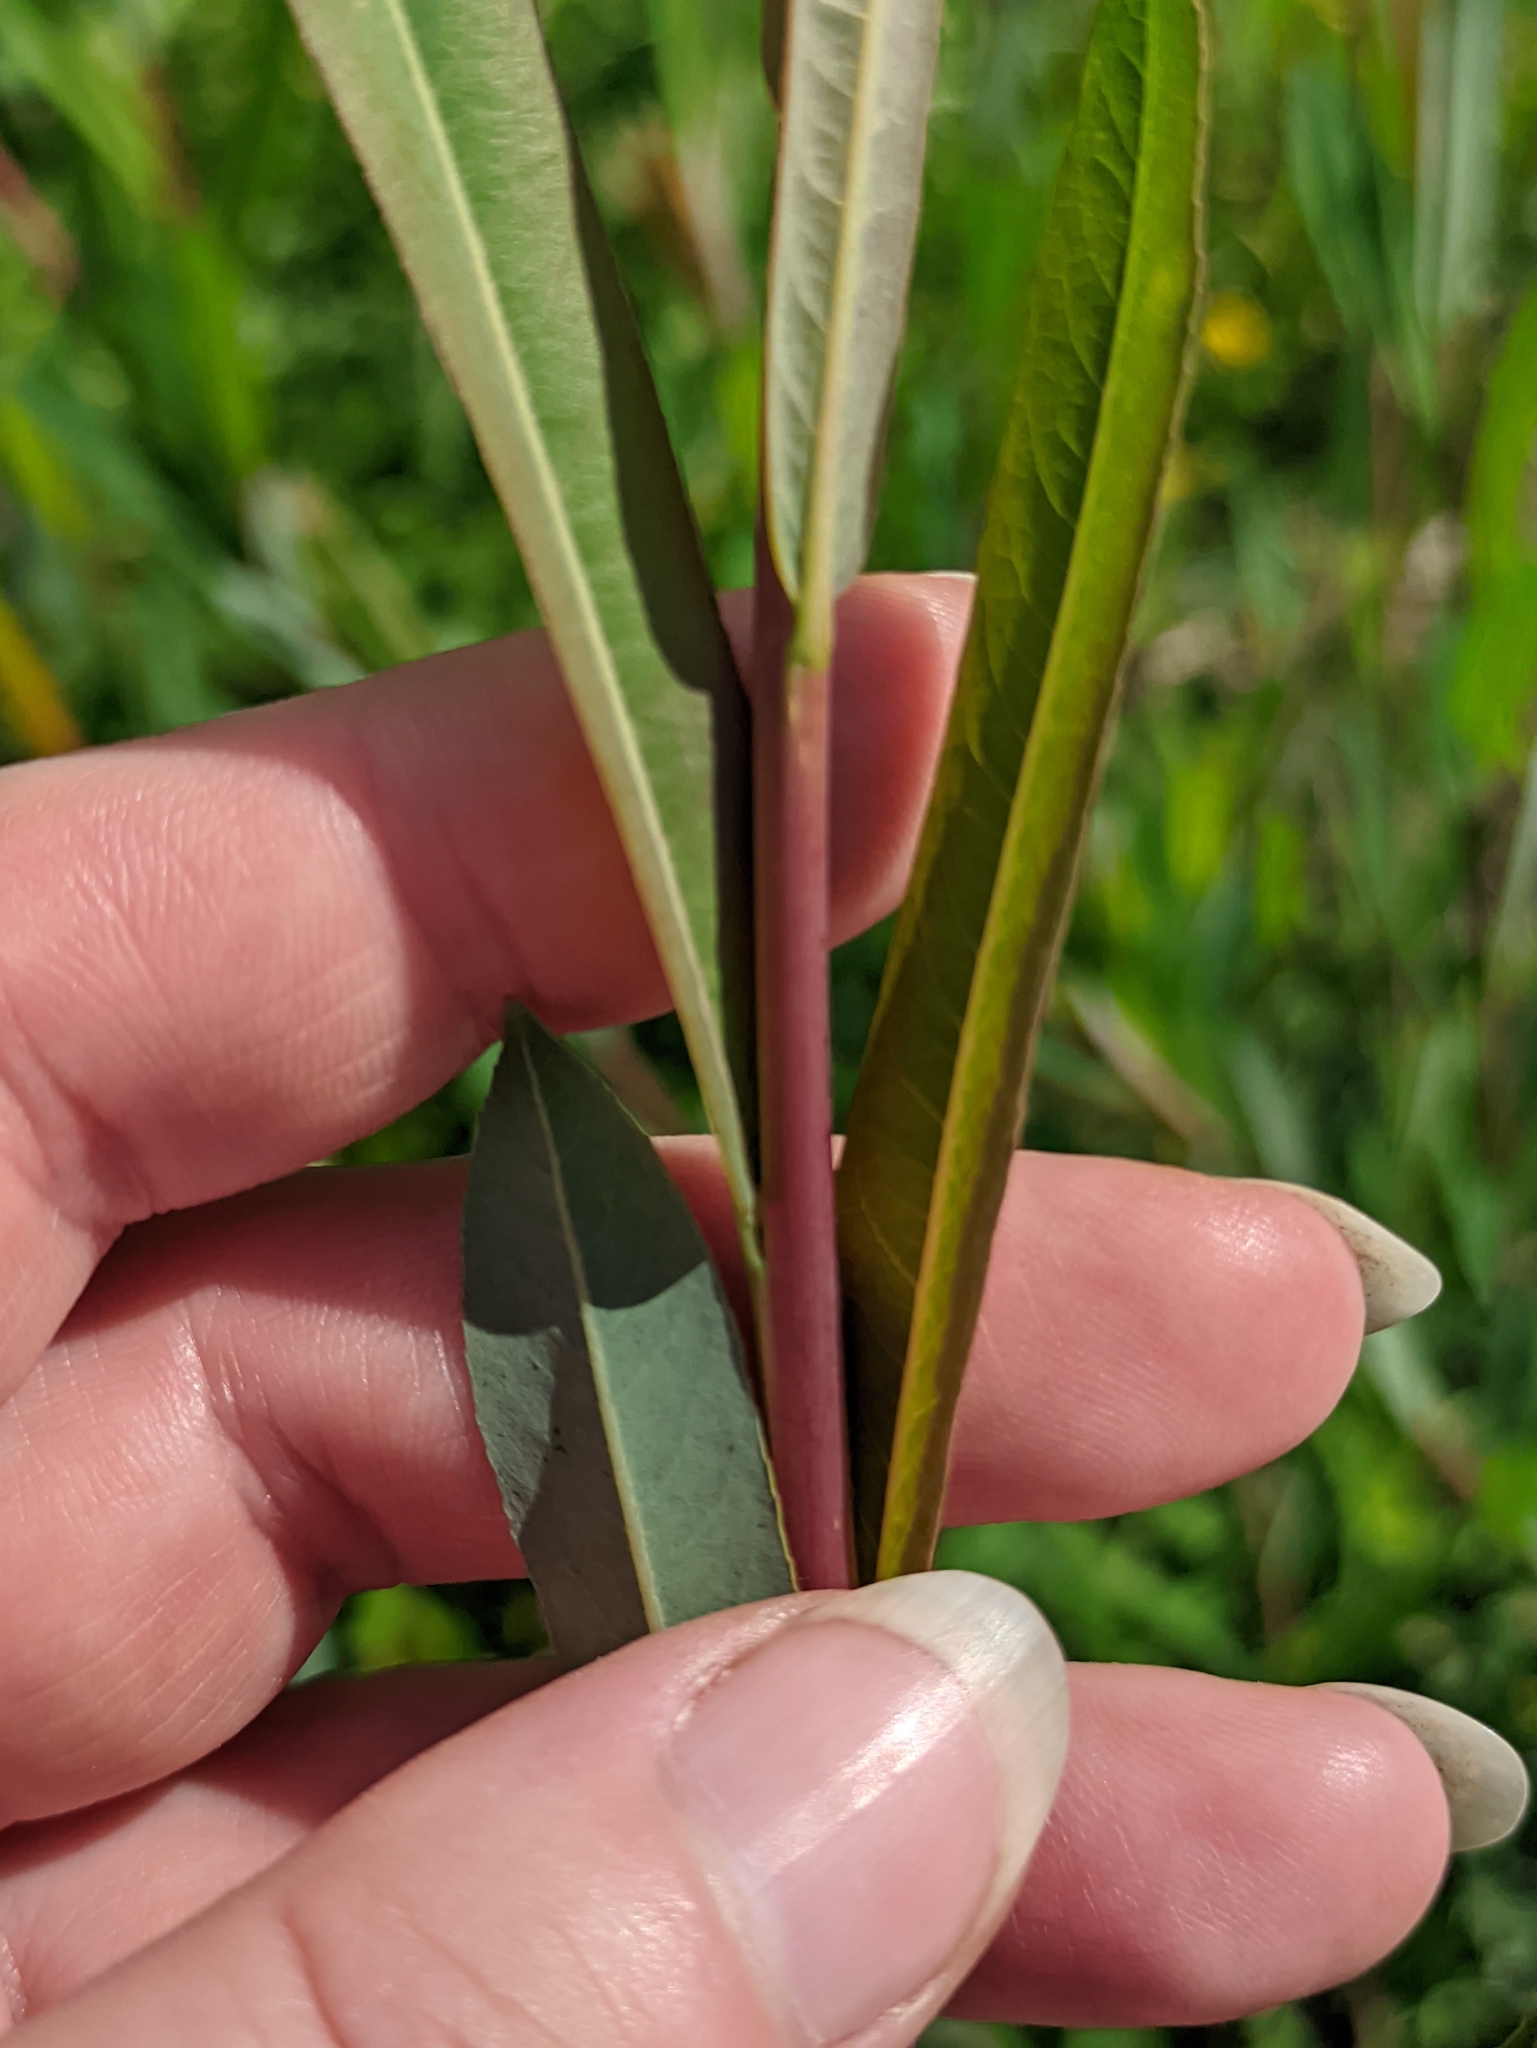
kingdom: Plantae
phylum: Tracheophyta
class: Magnoliopsida
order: Malpighiales
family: Salicaceae
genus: Salix
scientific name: Salix purpurea
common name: Purple willow
